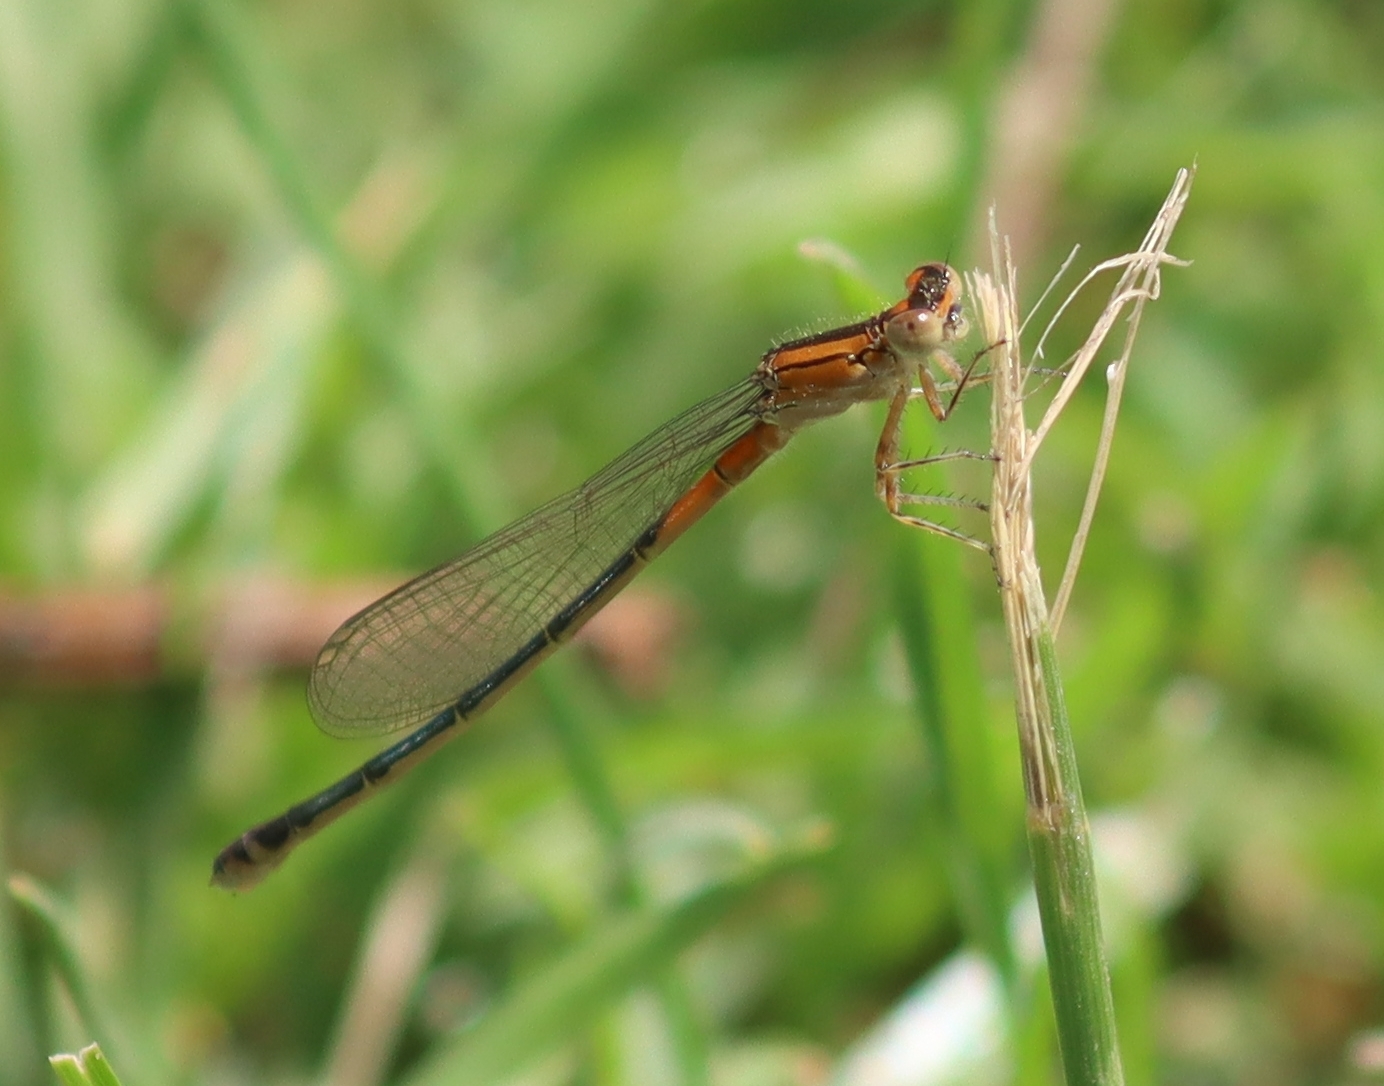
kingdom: Animalia
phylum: Arthropoda
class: Insecta
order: Odonata
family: Coenagrionidae
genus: Ischnura
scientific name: Ischnura verticalis
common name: Eastern forktail
